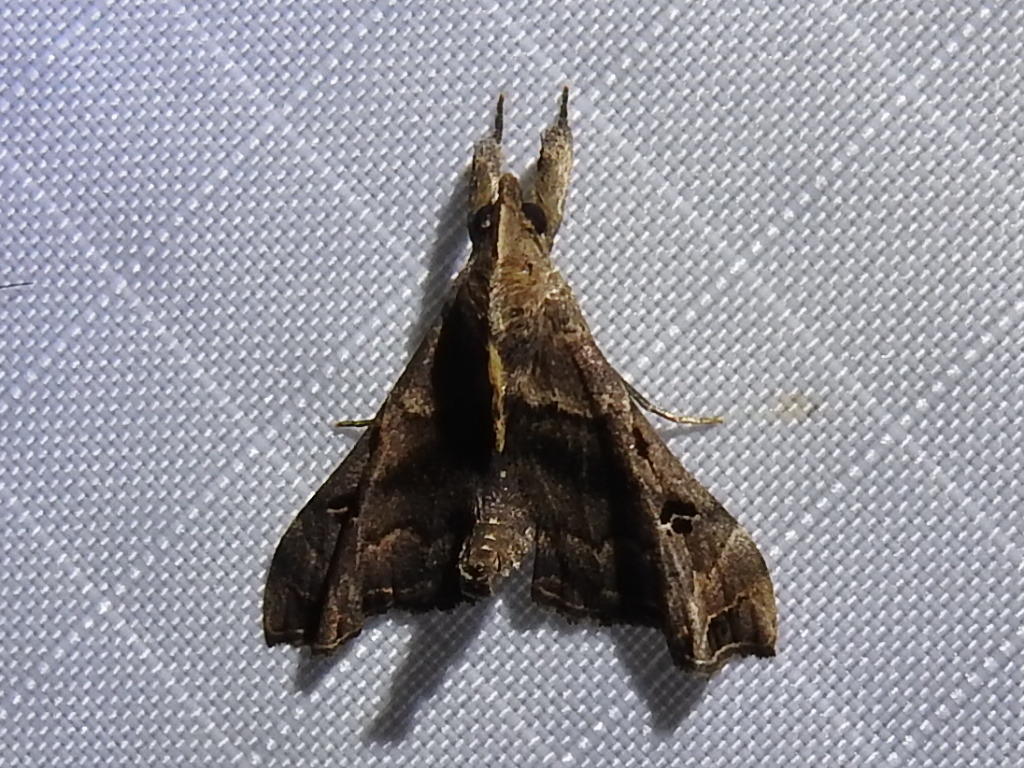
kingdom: Animalia
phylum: Arthropoda
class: Insecta
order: Lepidoptera
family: Erebidae
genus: Palthis
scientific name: Palthis asopialis
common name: Faint-spotted palthis moth
